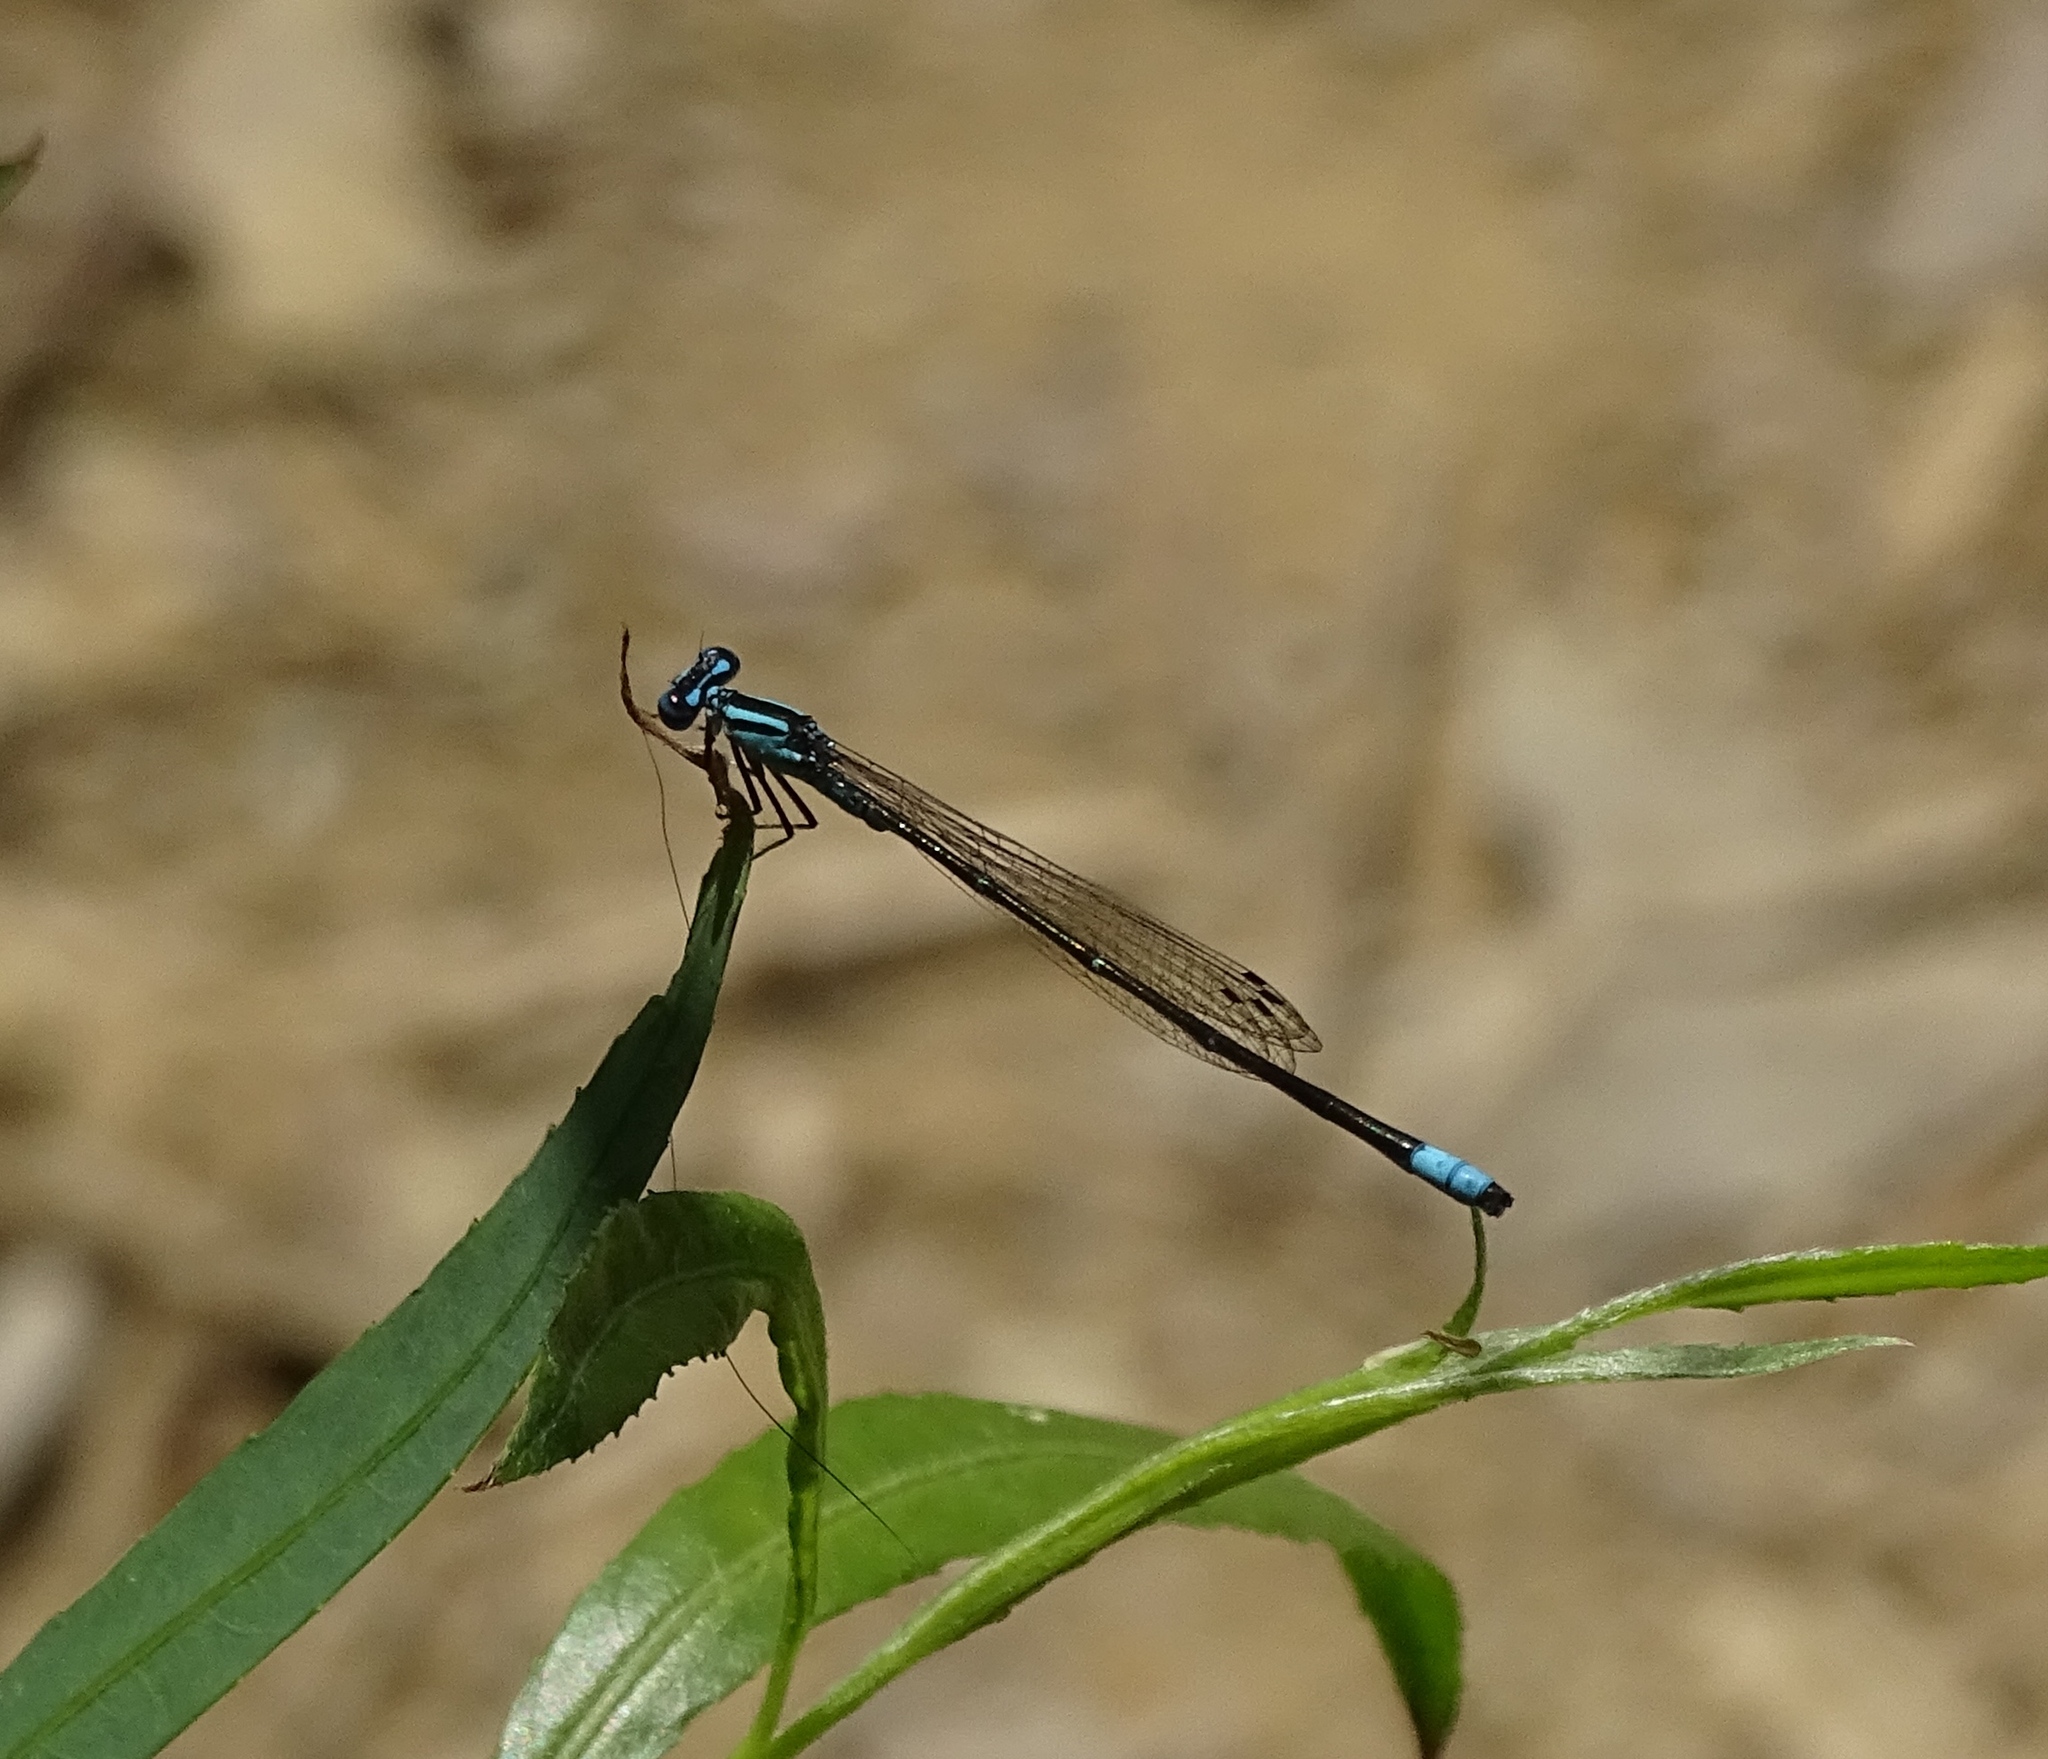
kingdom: Animalia
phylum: Arthropoda
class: Insecta
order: Odonata
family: Coenagrionidae
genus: Enallagma
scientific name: Enallagma divagans
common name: Turquoise bluet
